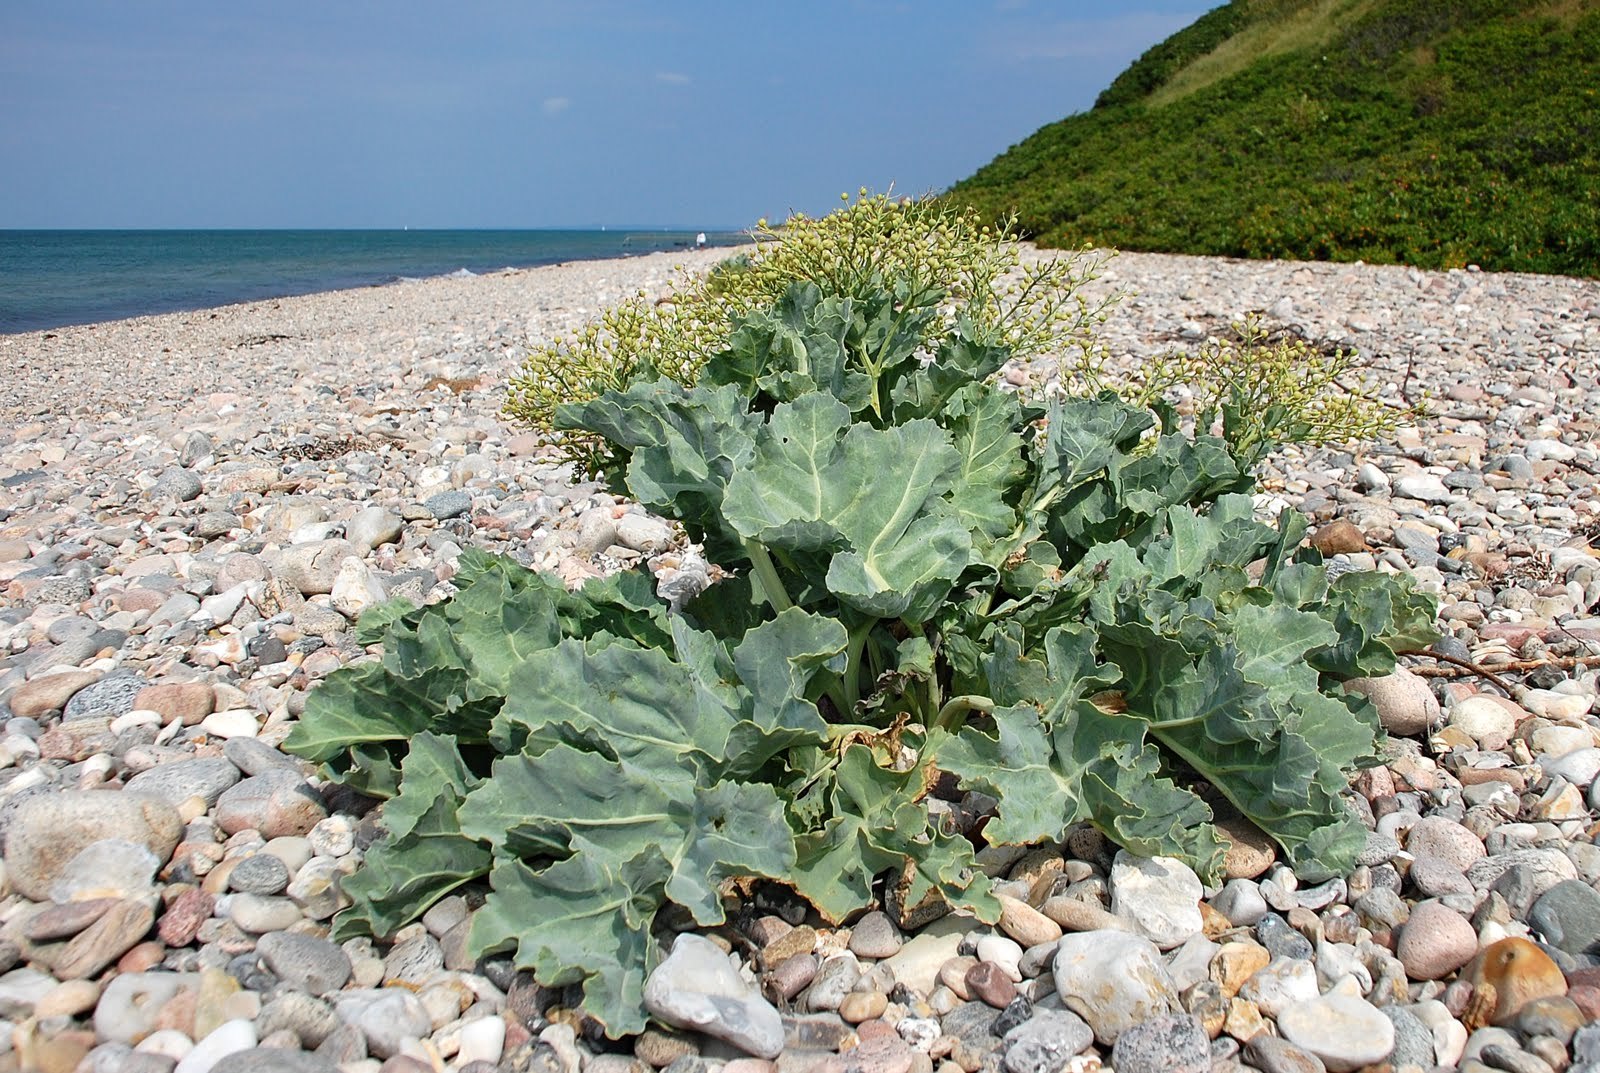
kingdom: Plantae
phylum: Tracheophyta
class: Magnoliopsida
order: Brassicales
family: Brassicaceae
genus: Crambe
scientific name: Crambe maritima
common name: Sea-kale
